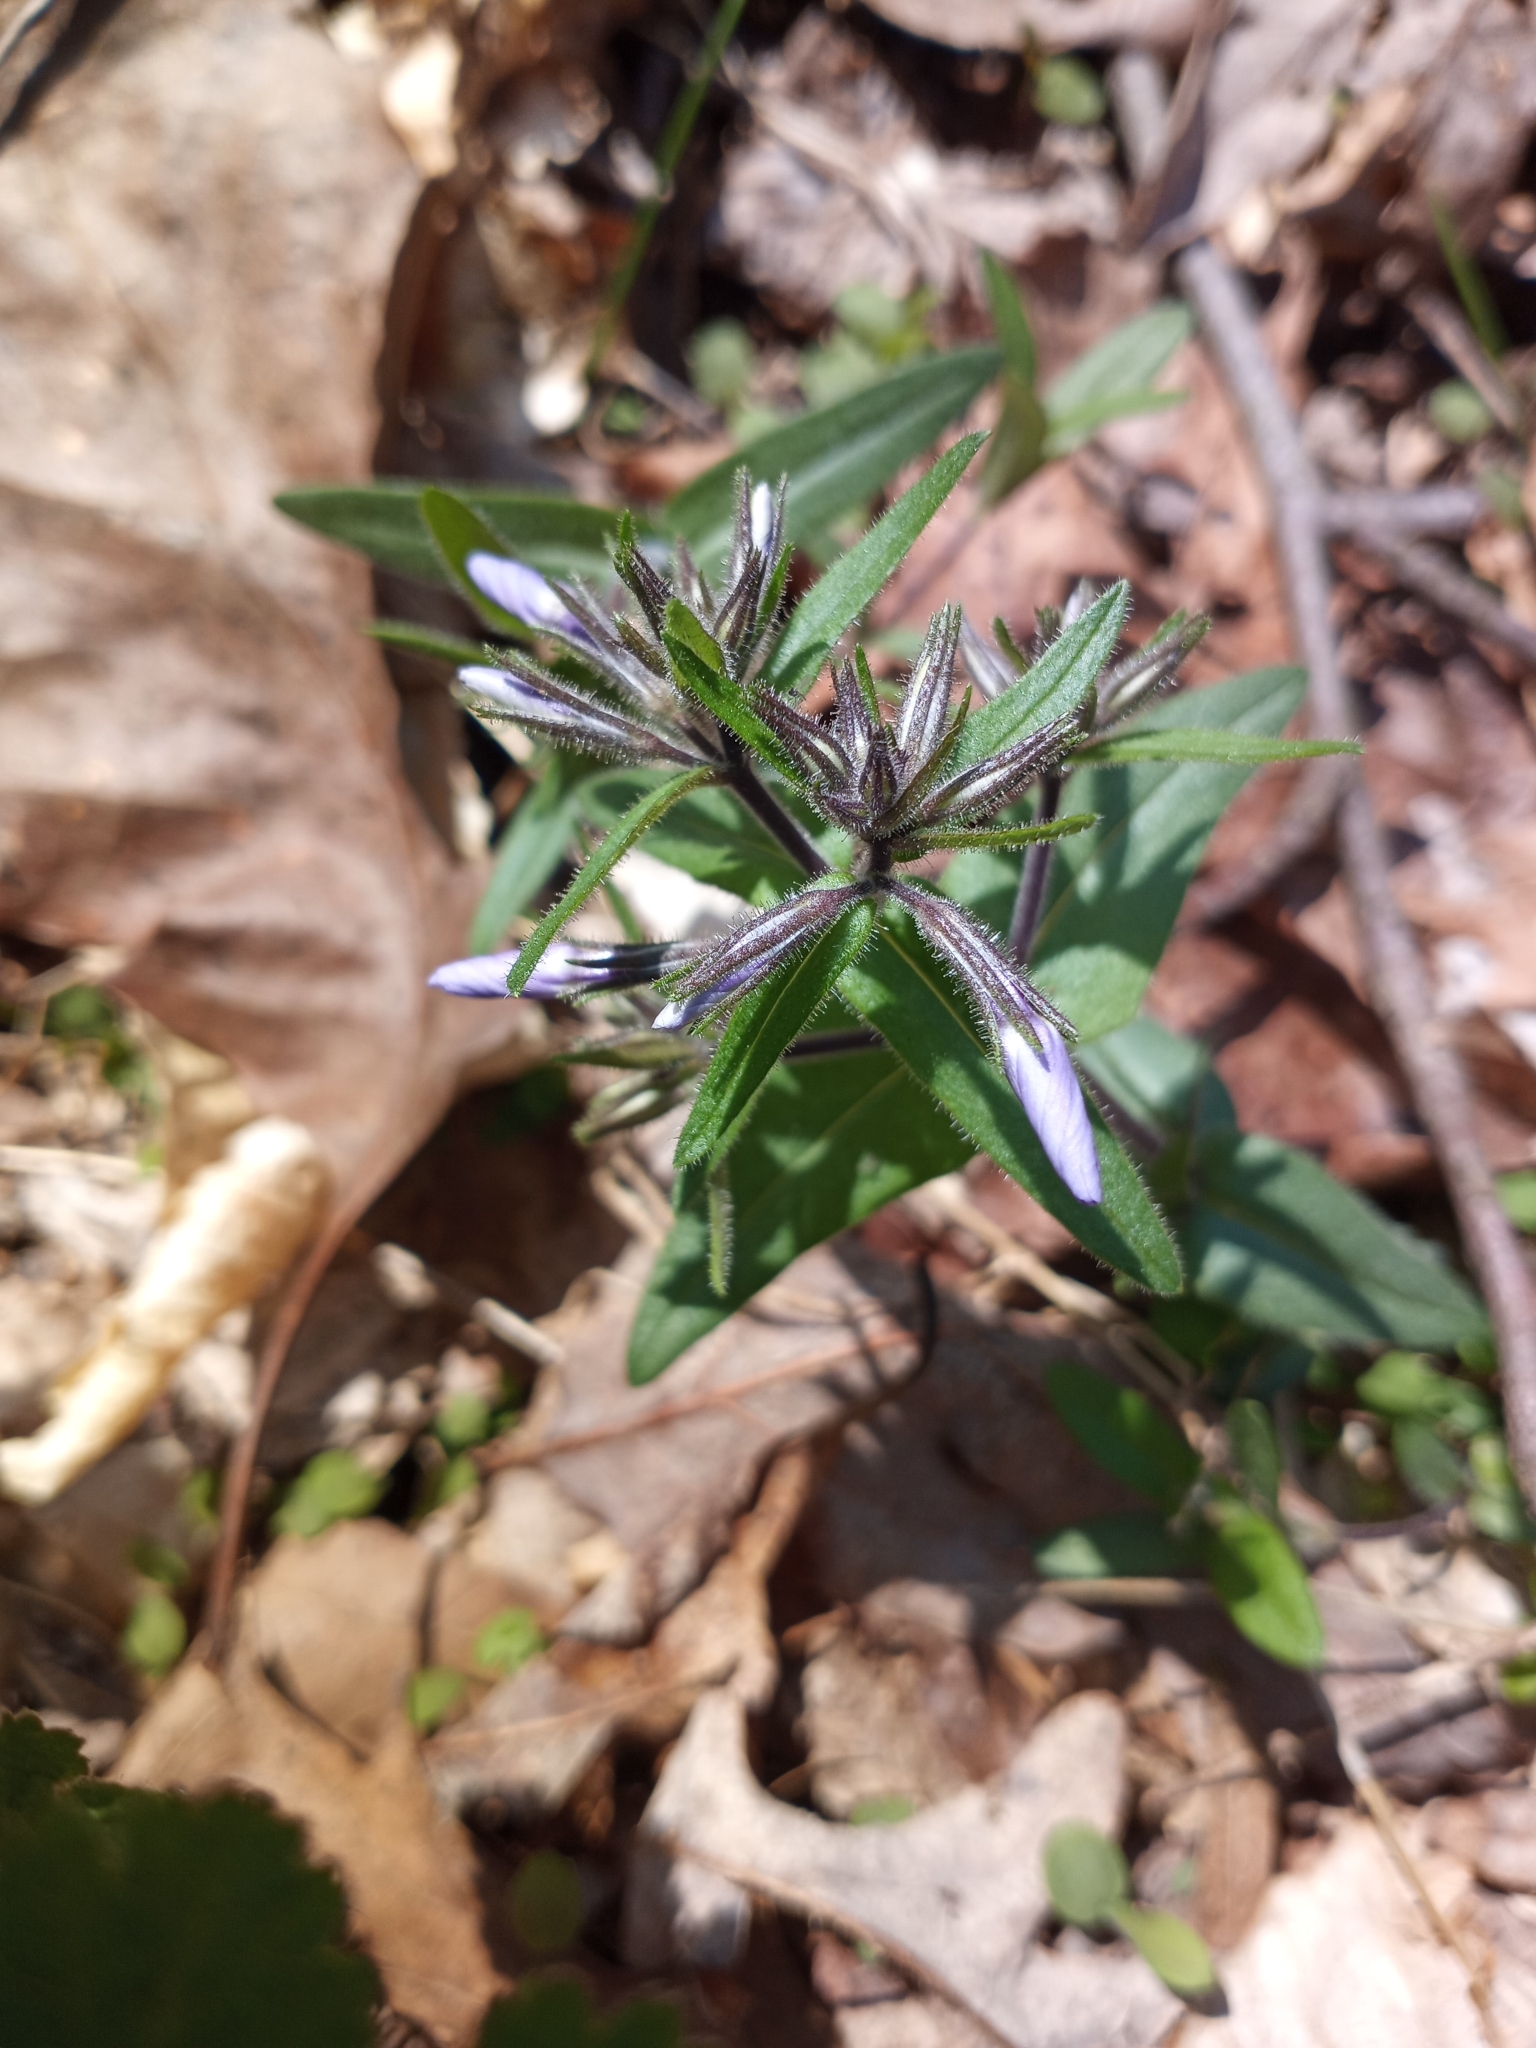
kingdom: Plantae
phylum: Tracheophyta
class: Magnoliopsida
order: Ericales
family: Polemoniaceae
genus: Phlox
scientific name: Phlox divaricata
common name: Blue phlox
